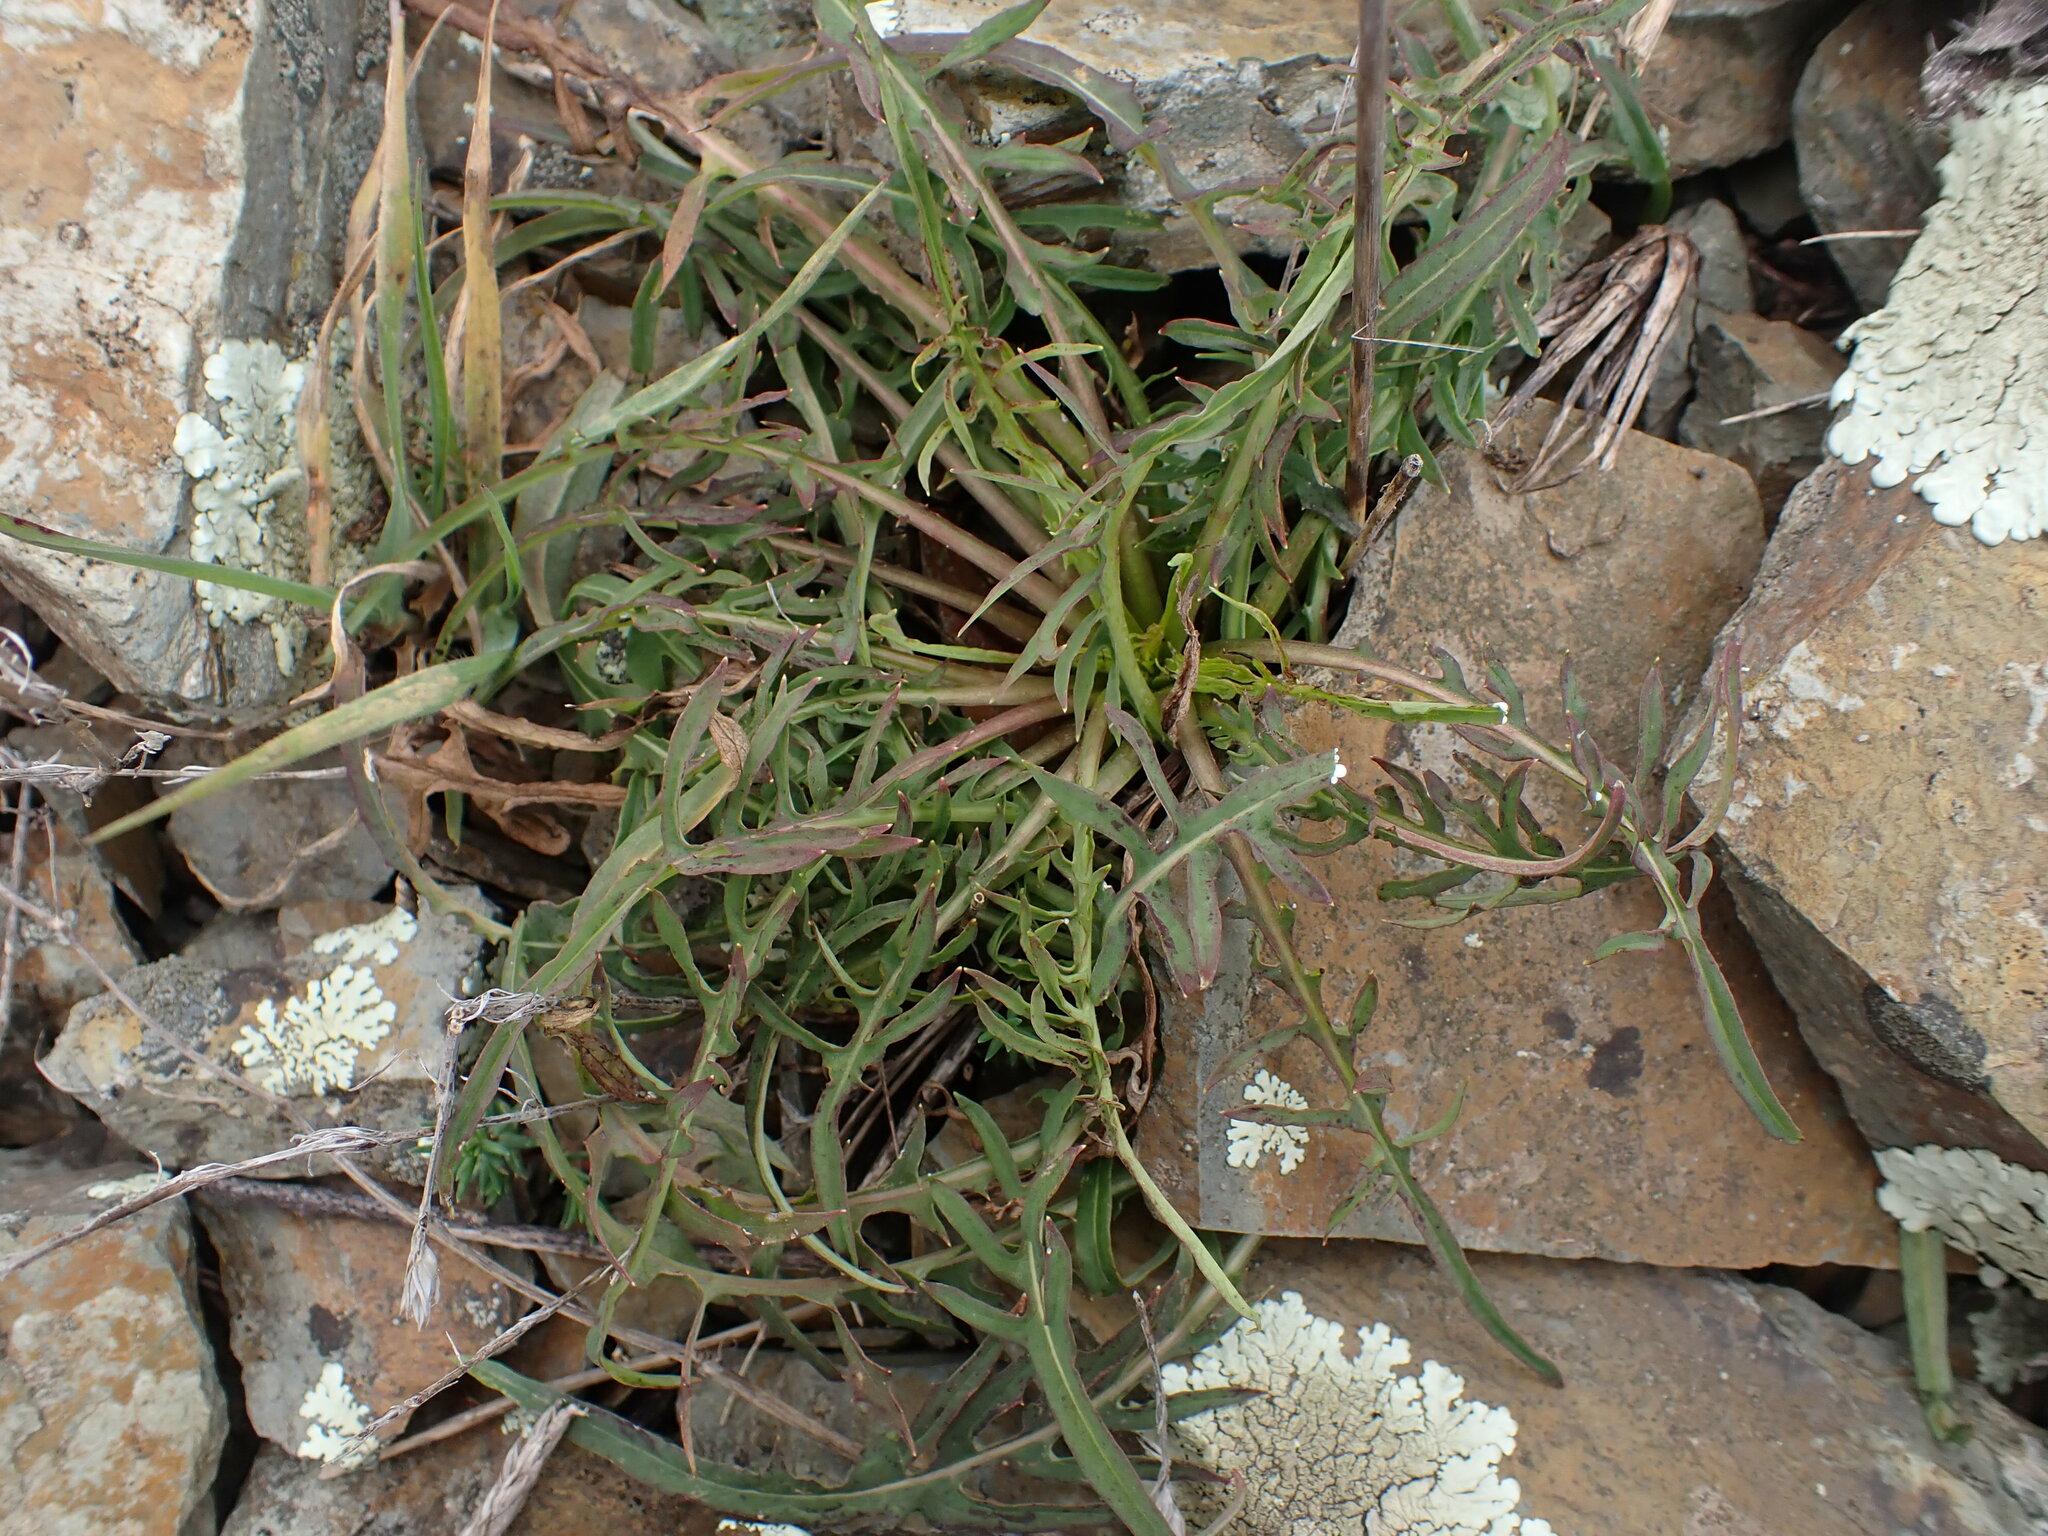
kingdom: Plantae
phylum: Tracheophyta
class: Magnoliopsida
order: Asterales
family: Asteraceae
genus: Lactuca
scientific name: Lactuca viminea
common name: Pliant lettuce
